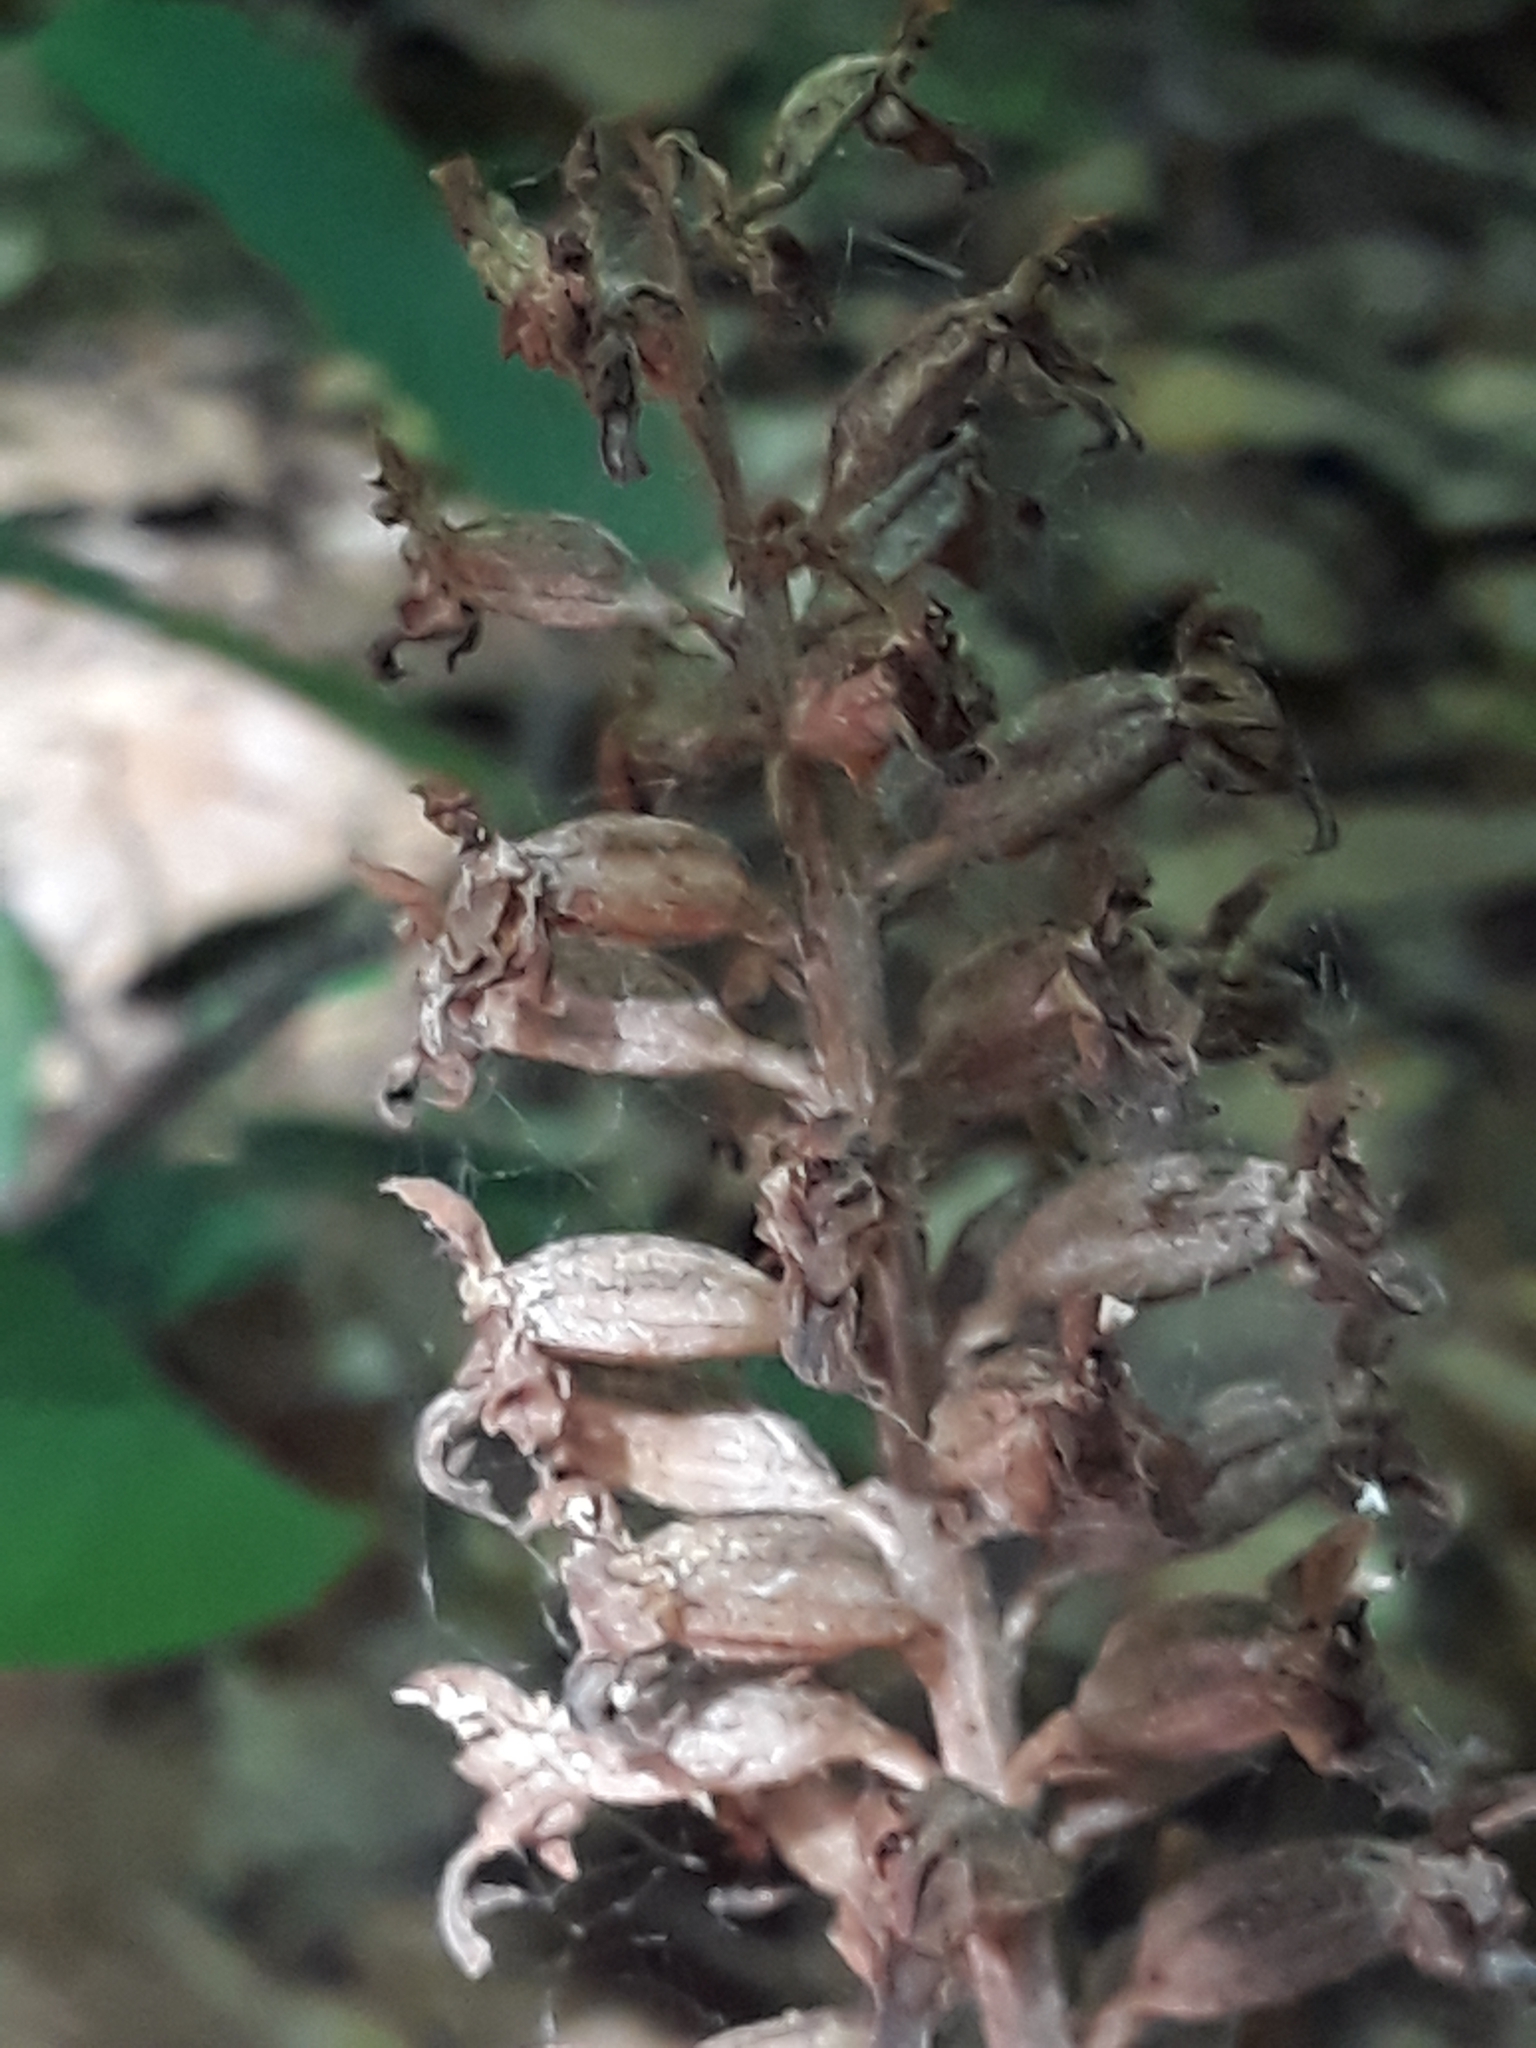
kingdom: Plantae
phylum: Tracheophyta
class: Liliopsida
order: Asparagales
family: Orchidaceae
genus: Neottia
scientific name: Neottia nidus-avis
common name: Bird's-nest orchid
